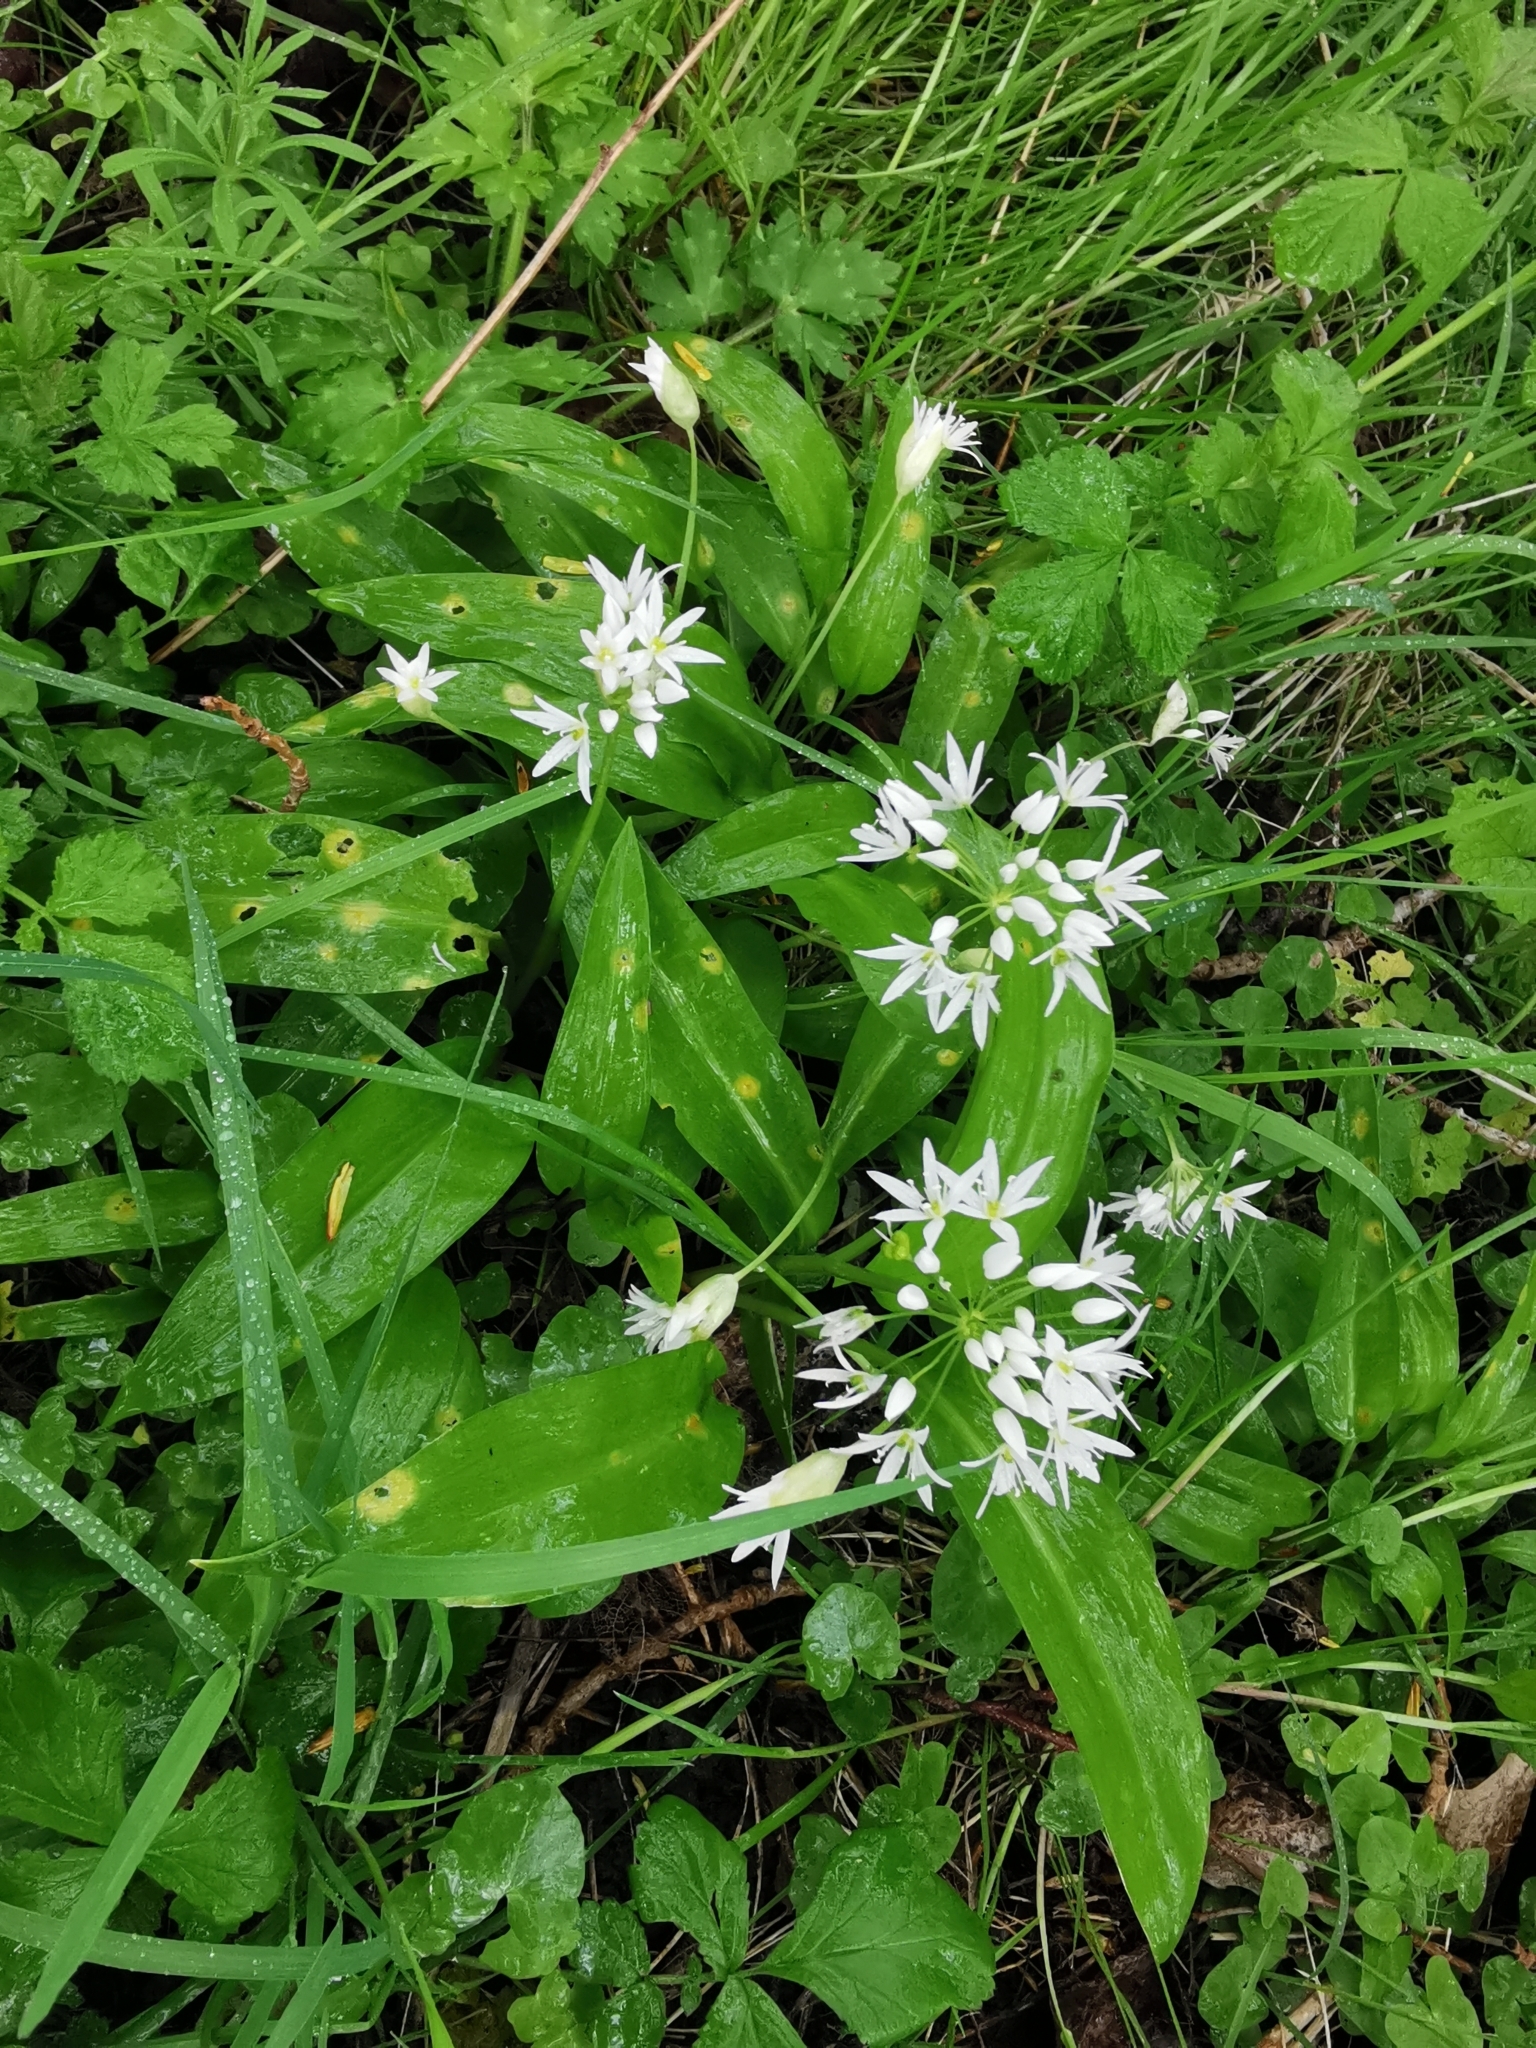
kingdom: Plantae
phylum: Tracheophyta
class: Liliopsida
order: Asparagales
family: Amaryllidaceae
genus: Allium
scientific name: Allium ursinum
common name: Ramsons
